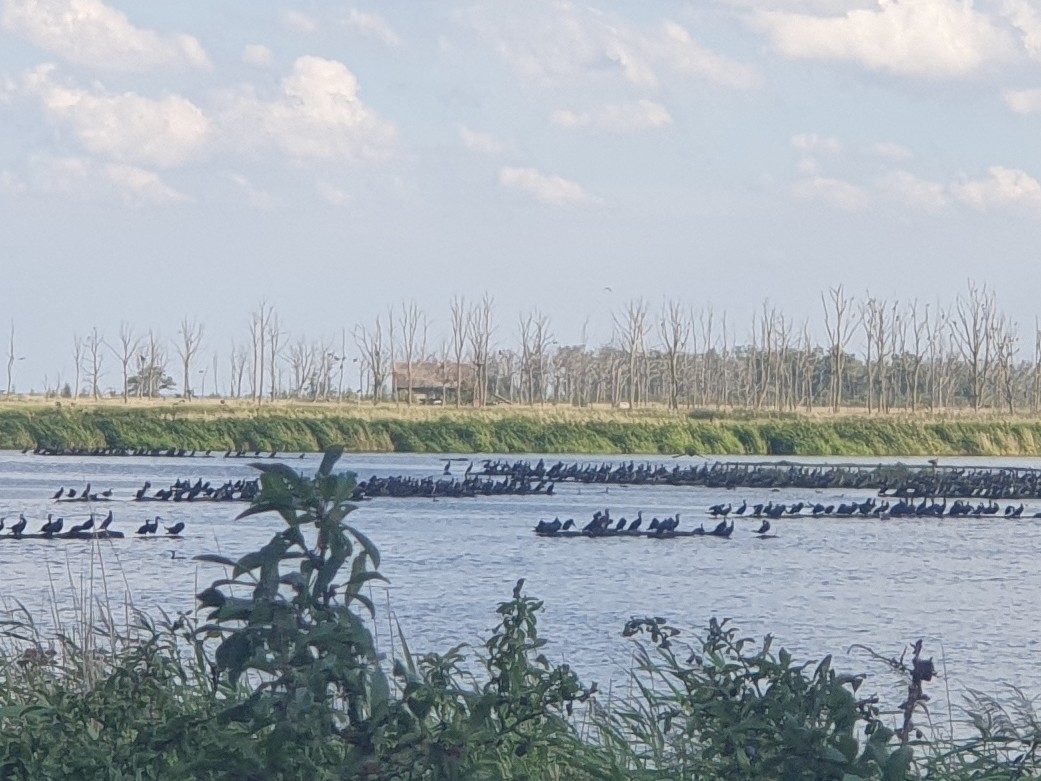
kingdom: Animalia
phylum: Chordata
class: Aves
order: Suliformes
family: Phalacrocoracidae
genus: Phalacrocorax
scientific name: Phalacrocorax carbo
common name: Great cormorant
